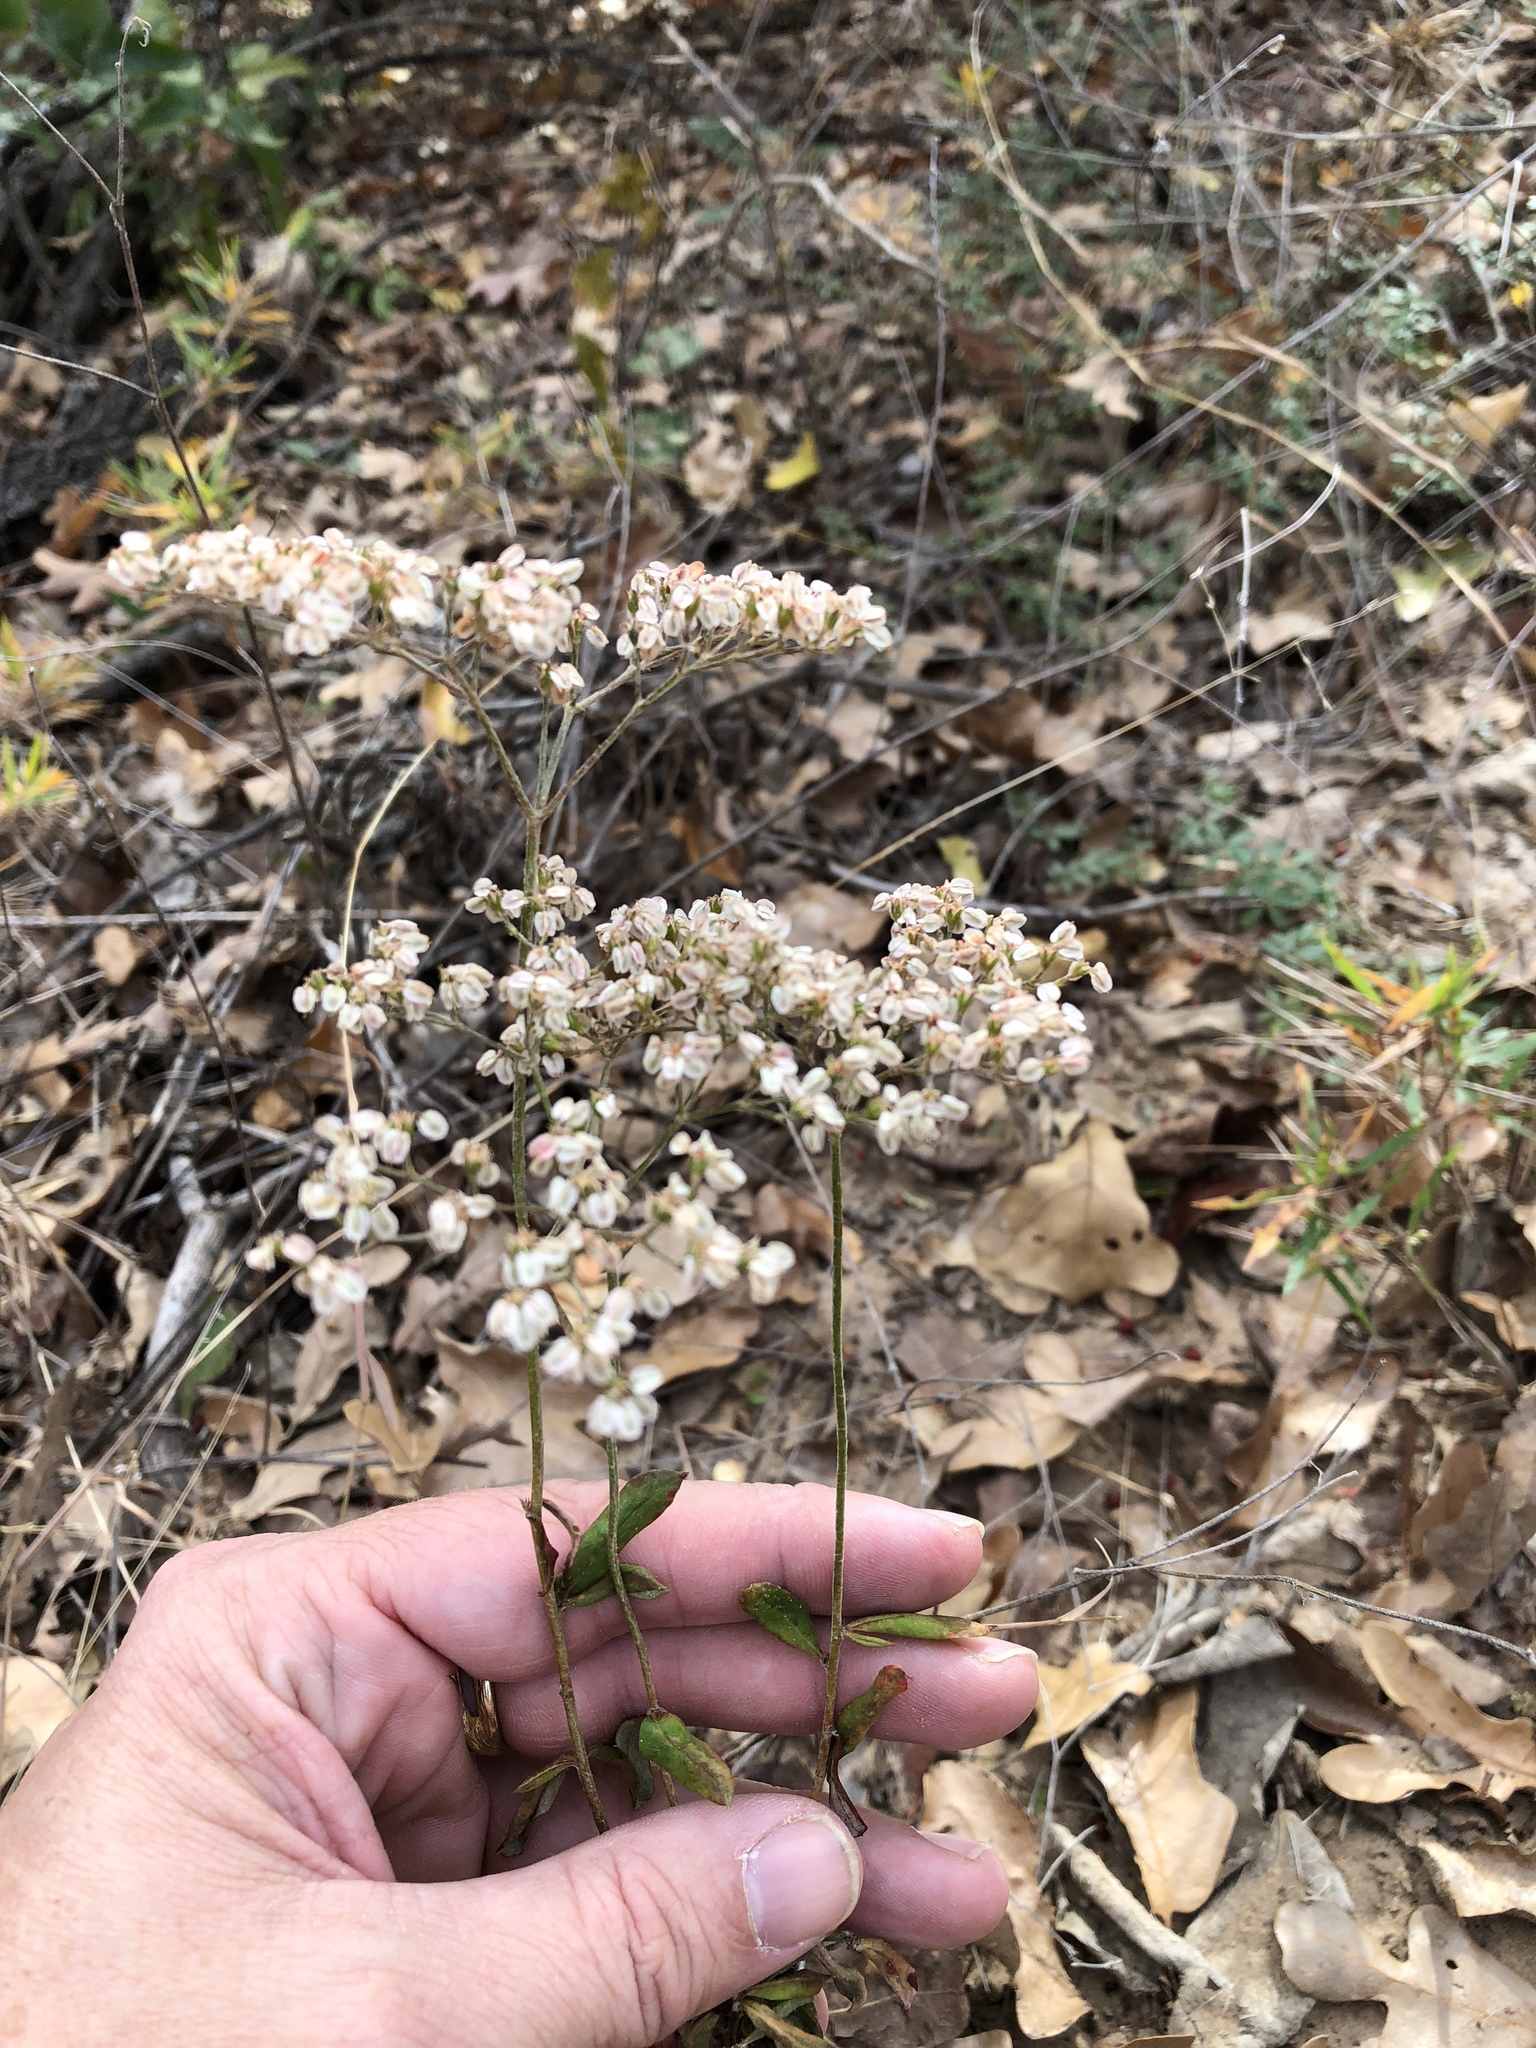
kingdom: Plantae
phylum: Tracheophyta
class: Magnoliopsida
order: Caryophyllales
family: Polygonaceae
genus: Eriogonum
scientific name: Eriogonum multiflorum
